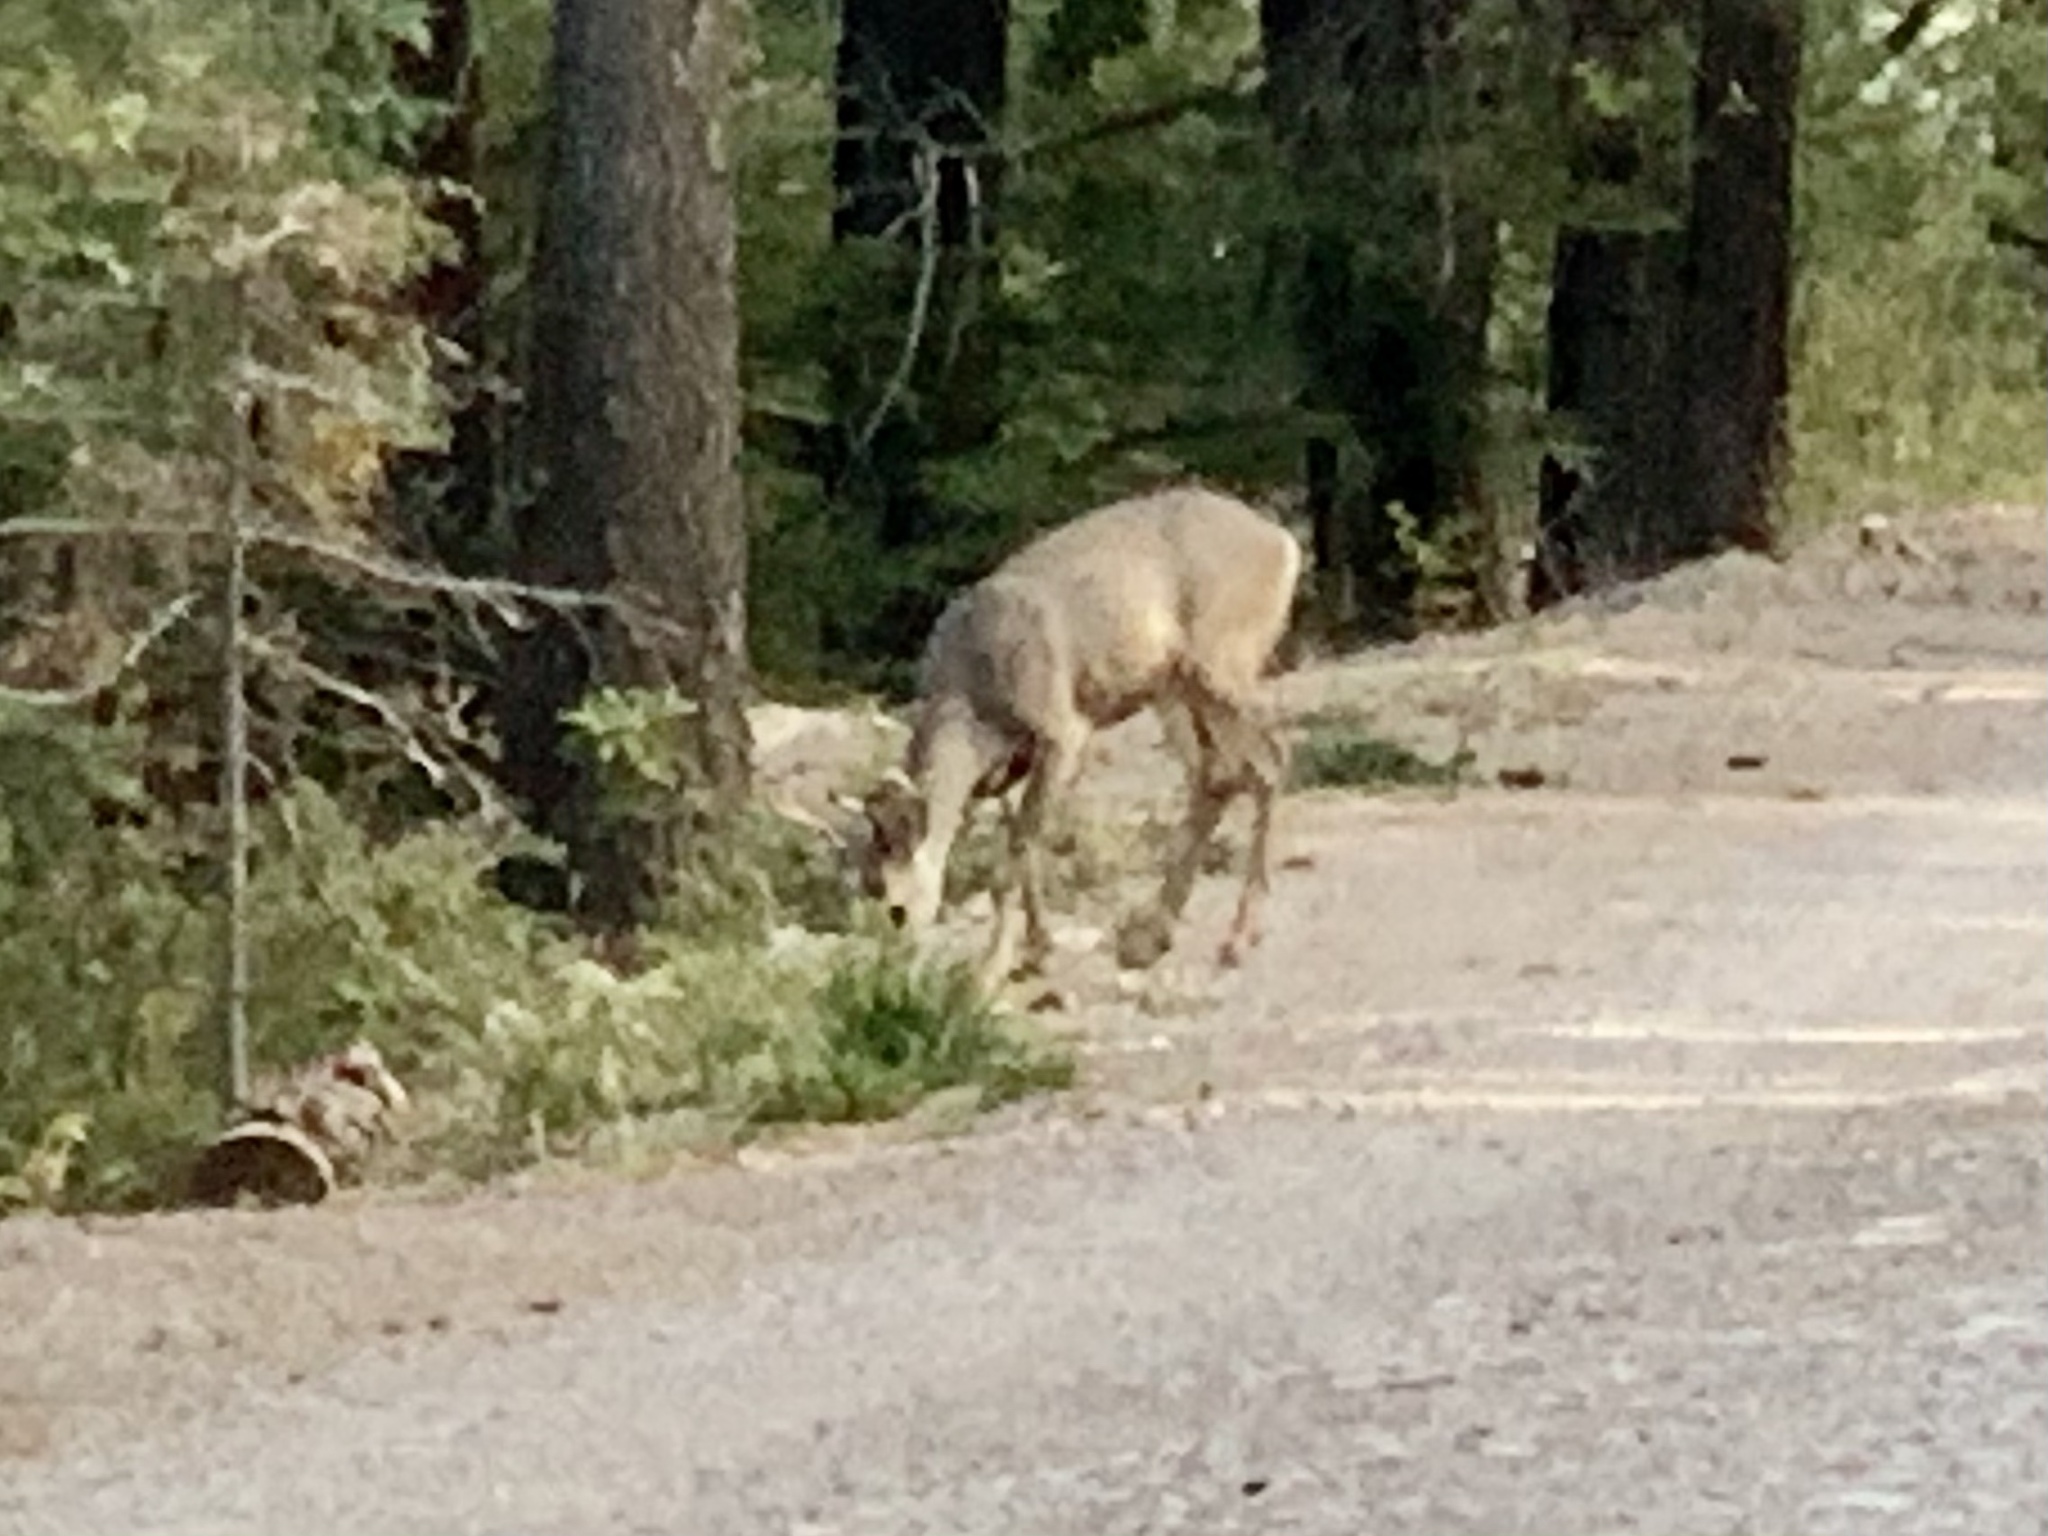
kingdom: Animalia
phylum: Chordata
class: Mammalia
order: Artiodactyla
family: Cervidae
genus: Odocoileus
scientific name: Odocoileus hemionus
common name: Mule deer
